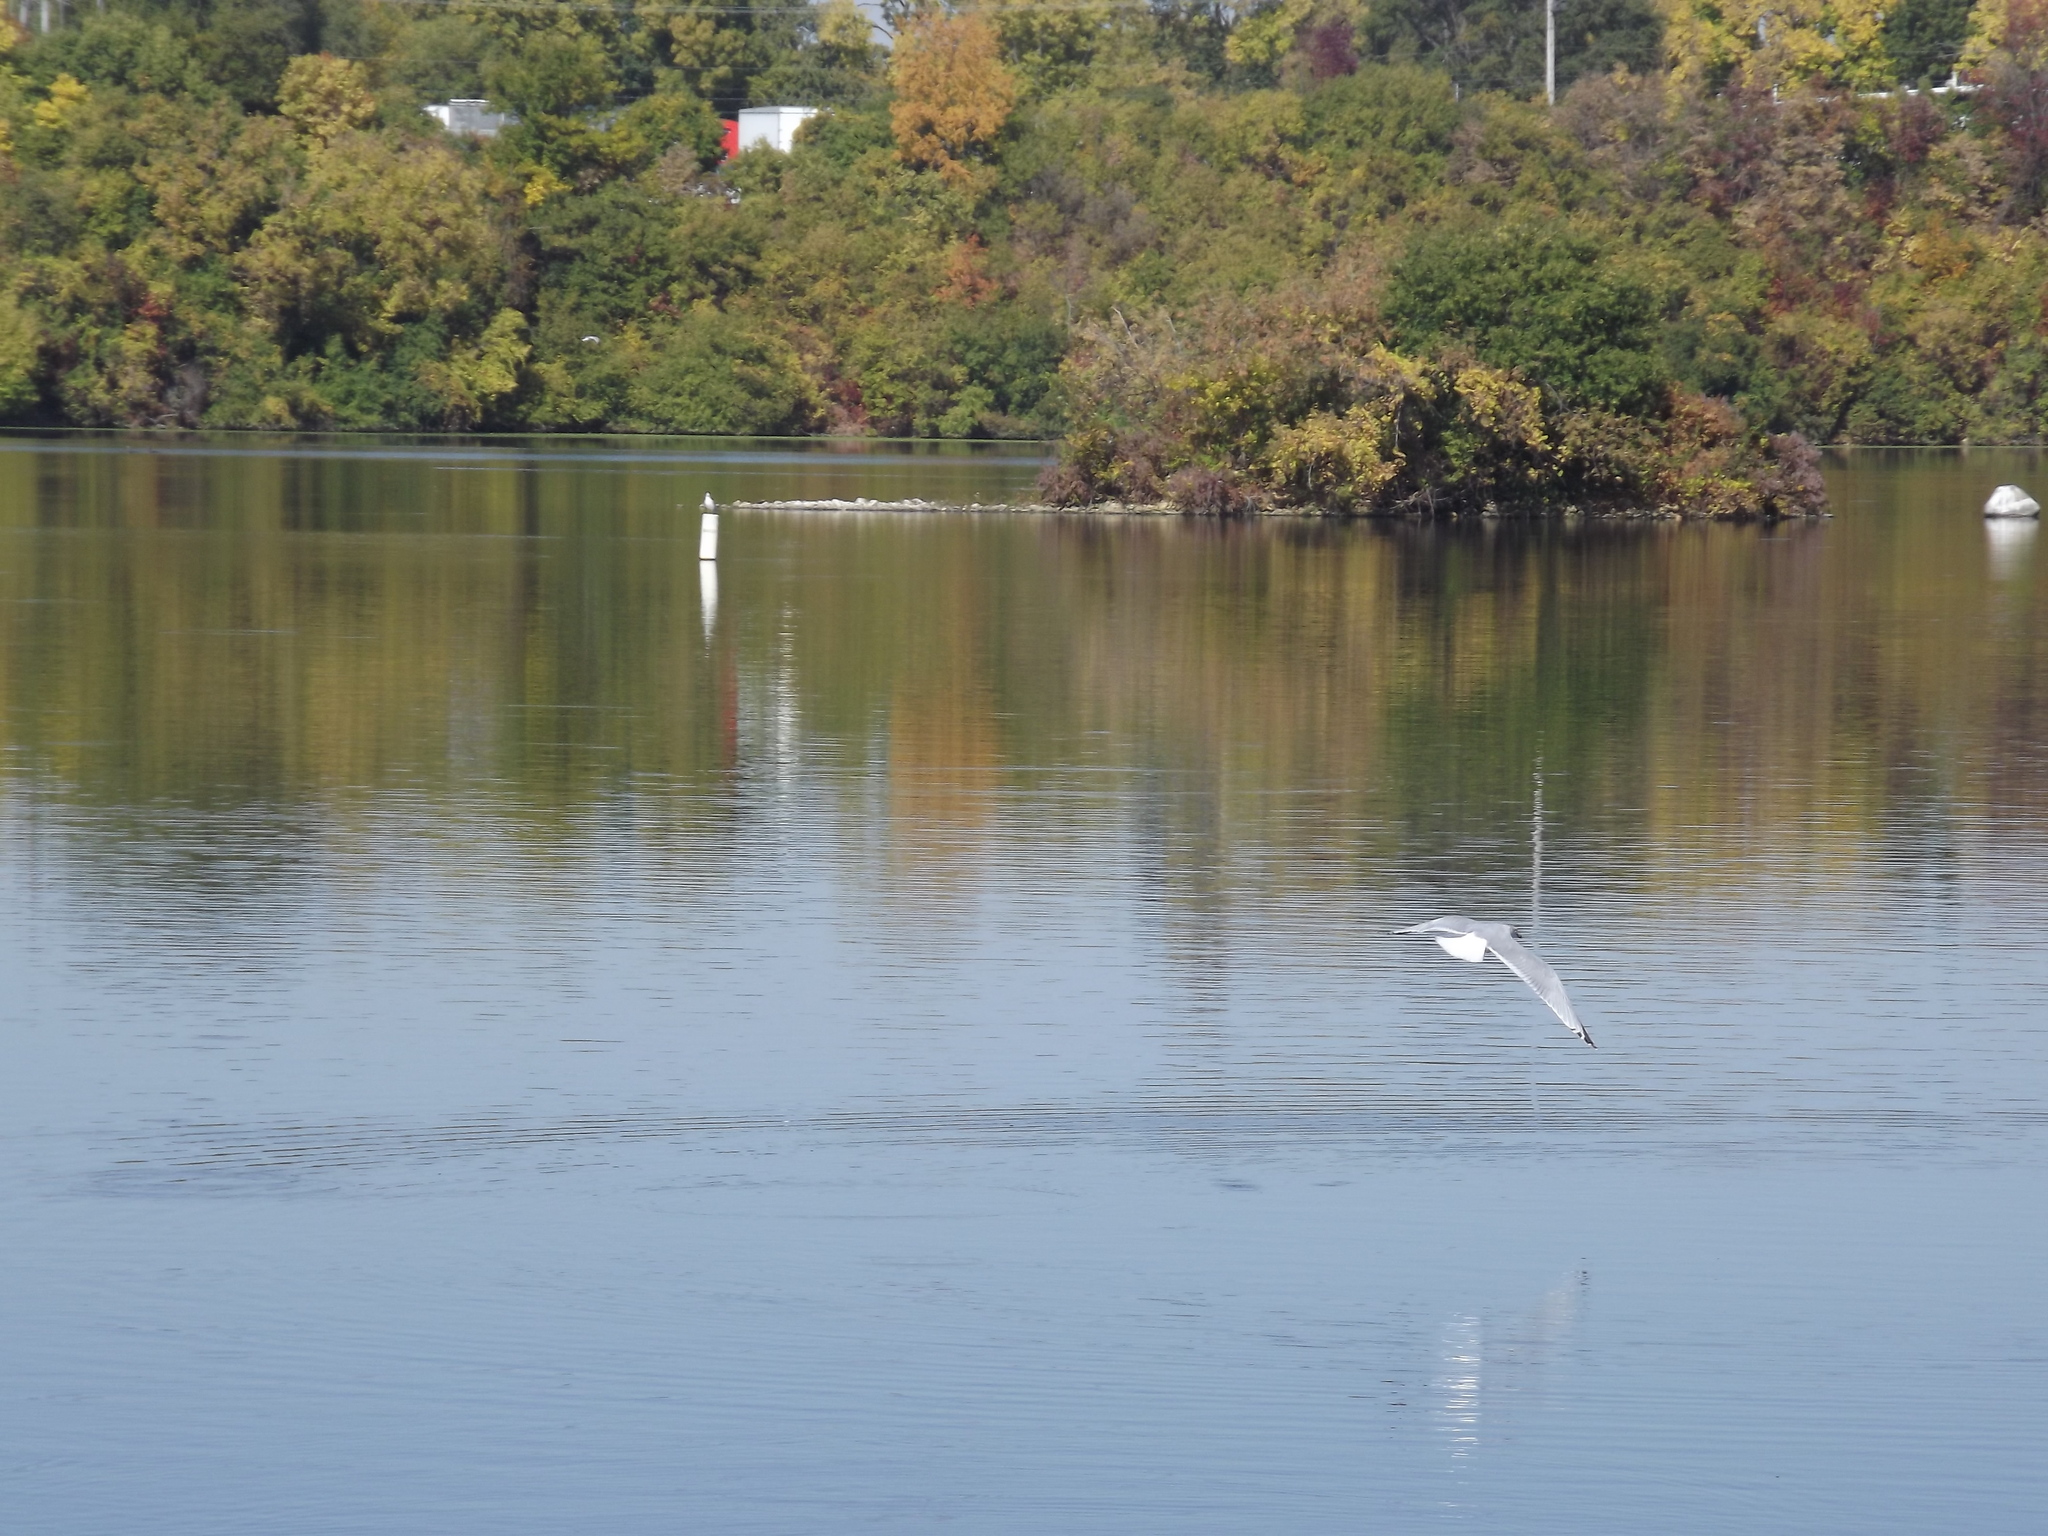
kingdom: Animalia
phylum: Chordata
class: Aves
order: Charadriiformes
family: Laridae
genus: Larus
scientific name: Larus delawarensis
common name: Ring-billed gull
